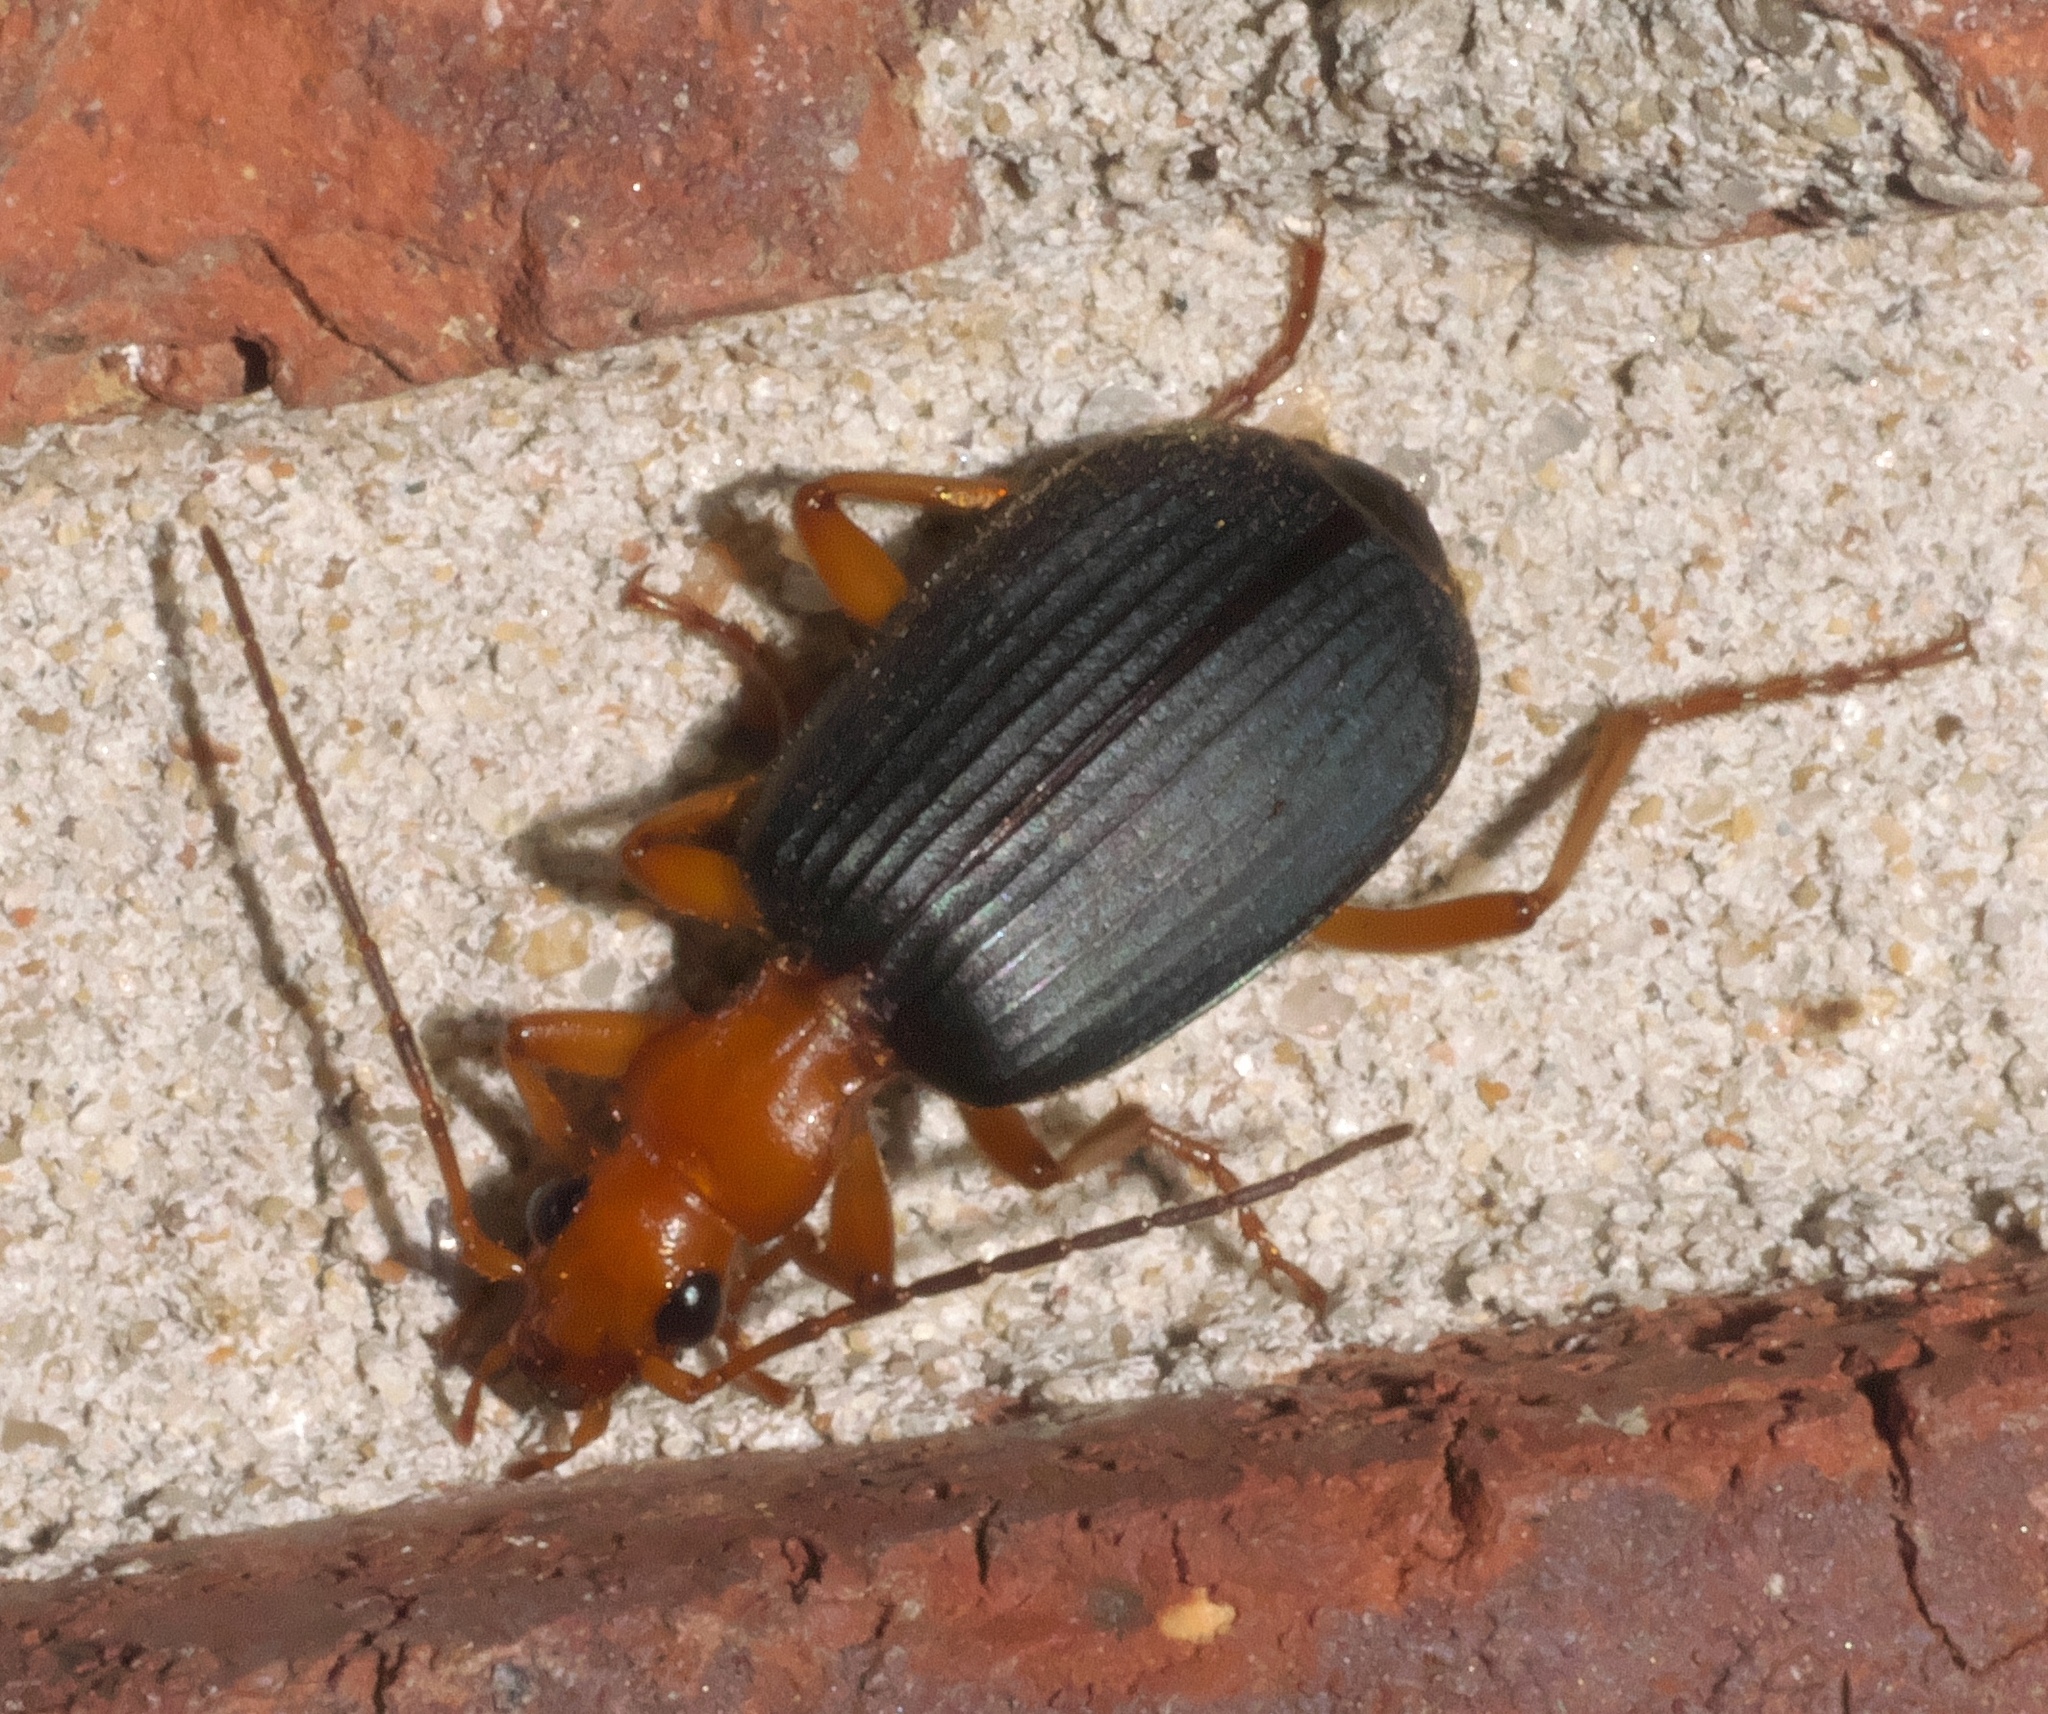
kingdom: Animalia
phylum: Arthropoda
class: Insecta
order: Coleoptera
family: Carabidae
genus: Brachinus
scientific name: Brachinus
